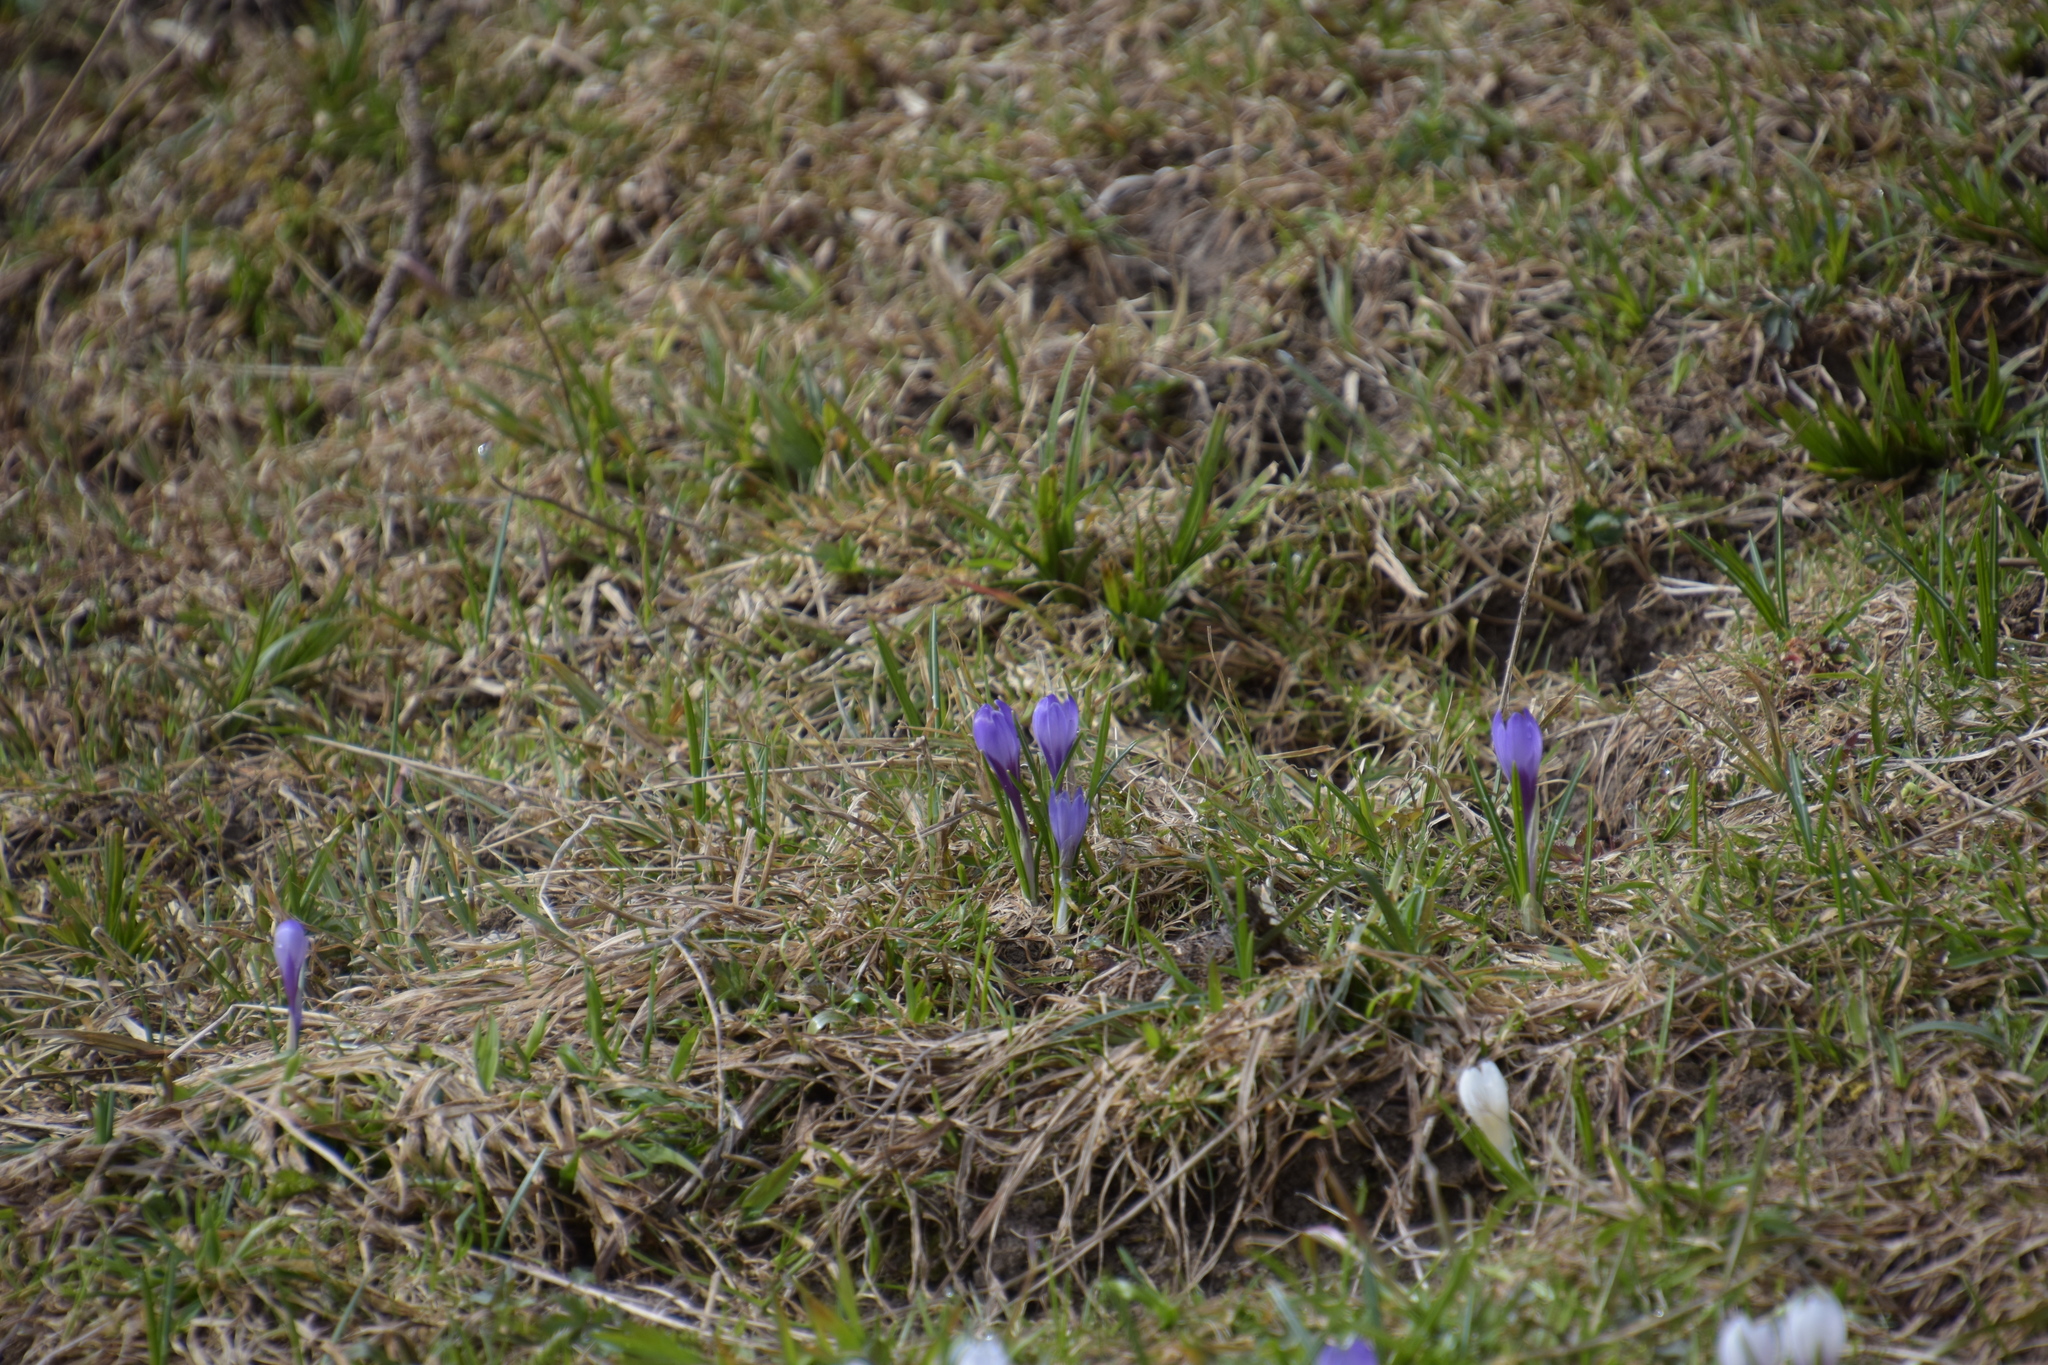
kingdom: Plantae
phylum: Tracheophyta
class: Liliopsida
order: Asparagales
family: Iridaceae
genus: Crocus
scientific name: Crocus
